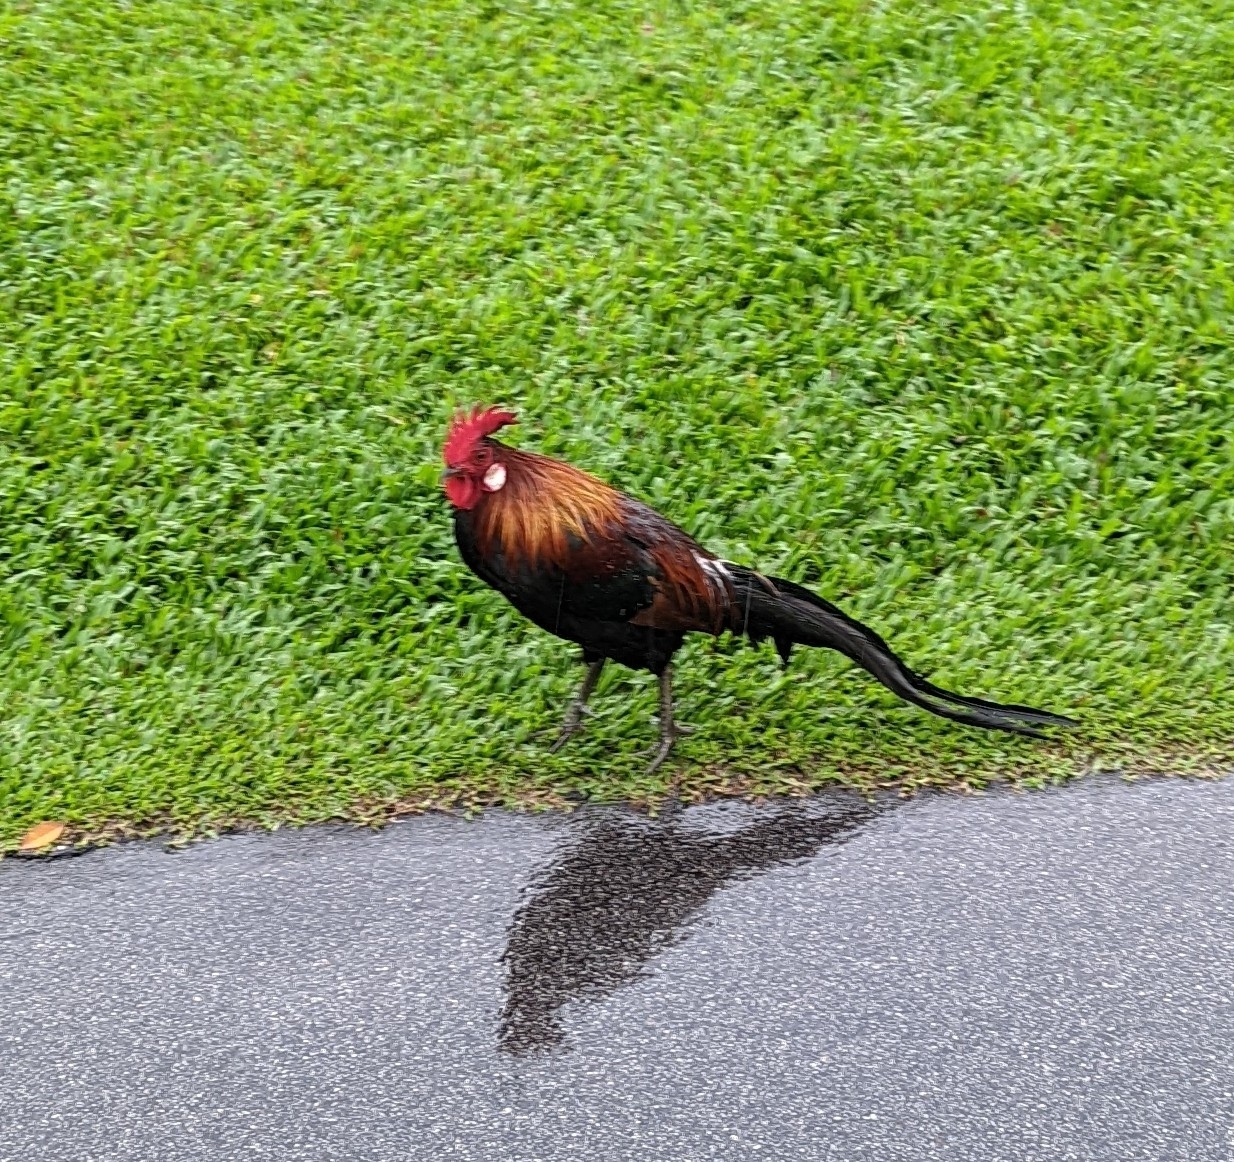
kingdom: Animalia
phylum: Chordata
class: Aves
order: Galliformes
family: Phasianidae
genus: Gallus
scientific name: Gallus gallus
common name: Red junglefowl
